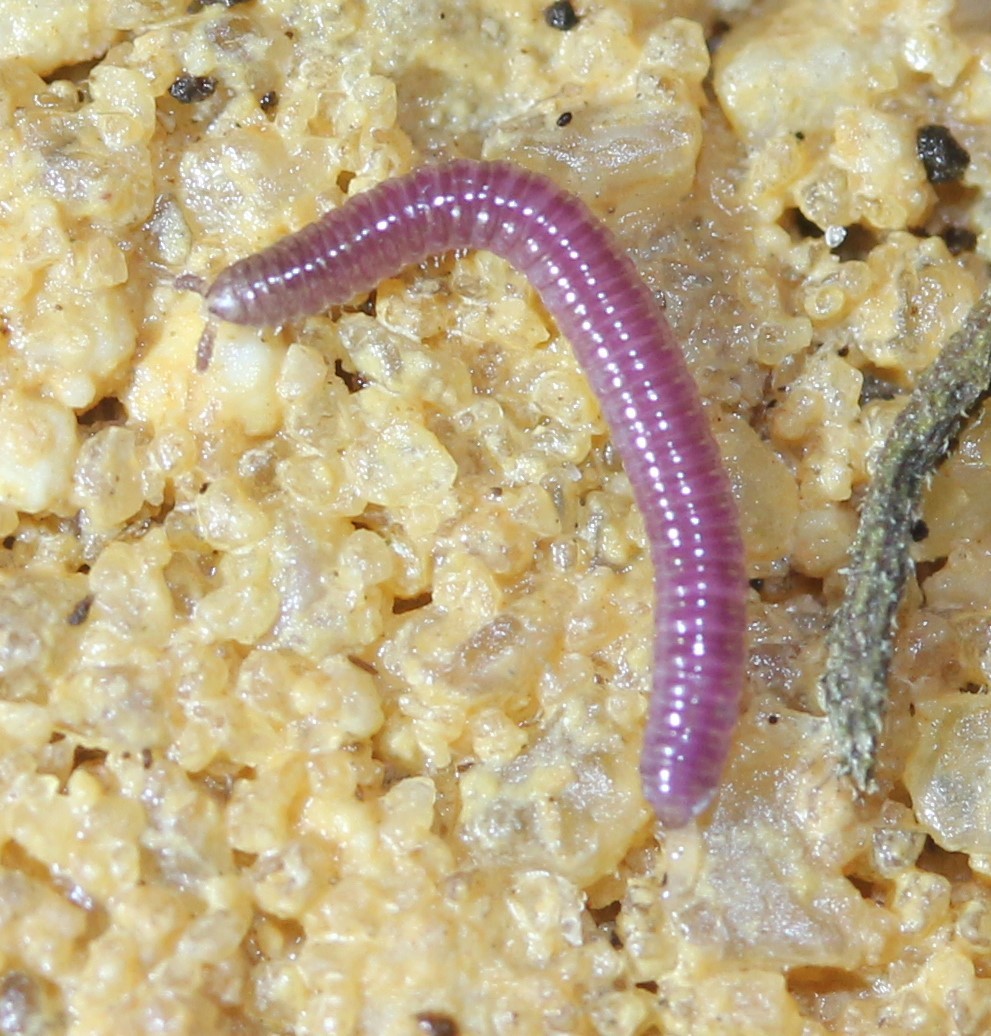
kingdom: Animalia
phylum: Arthropoda
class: Diplopoda
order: Polyzoniida
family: Siphonotidae
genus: Rhinotus
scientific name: Rhinotus purpureus
